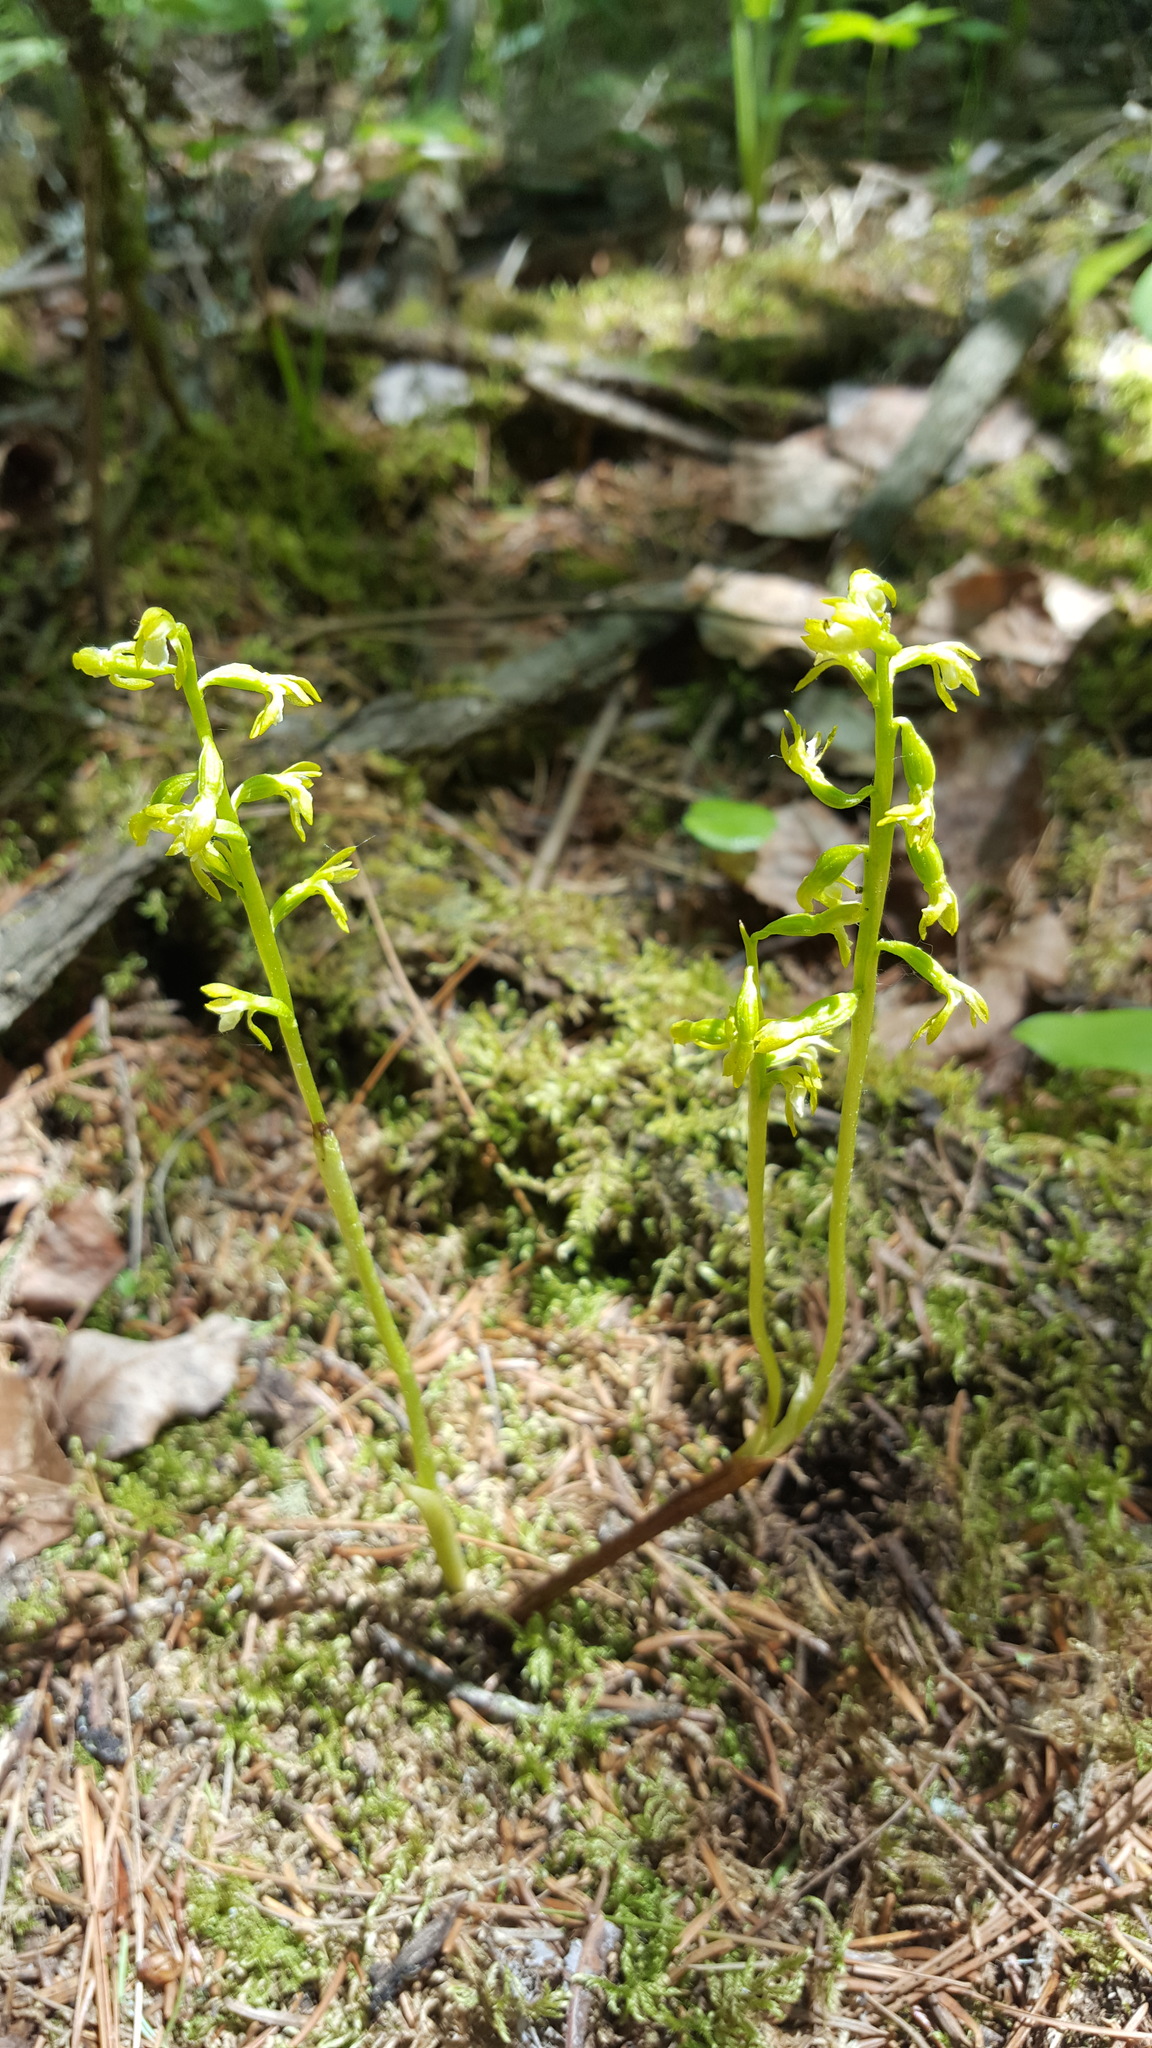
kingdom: Plantae
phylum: Tracheophyta
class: Liliopsida
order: Asparagales
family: Orchidaceae
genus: Corallorhiza
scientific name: Corallorhiza trifida
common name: Yellow coralroot
